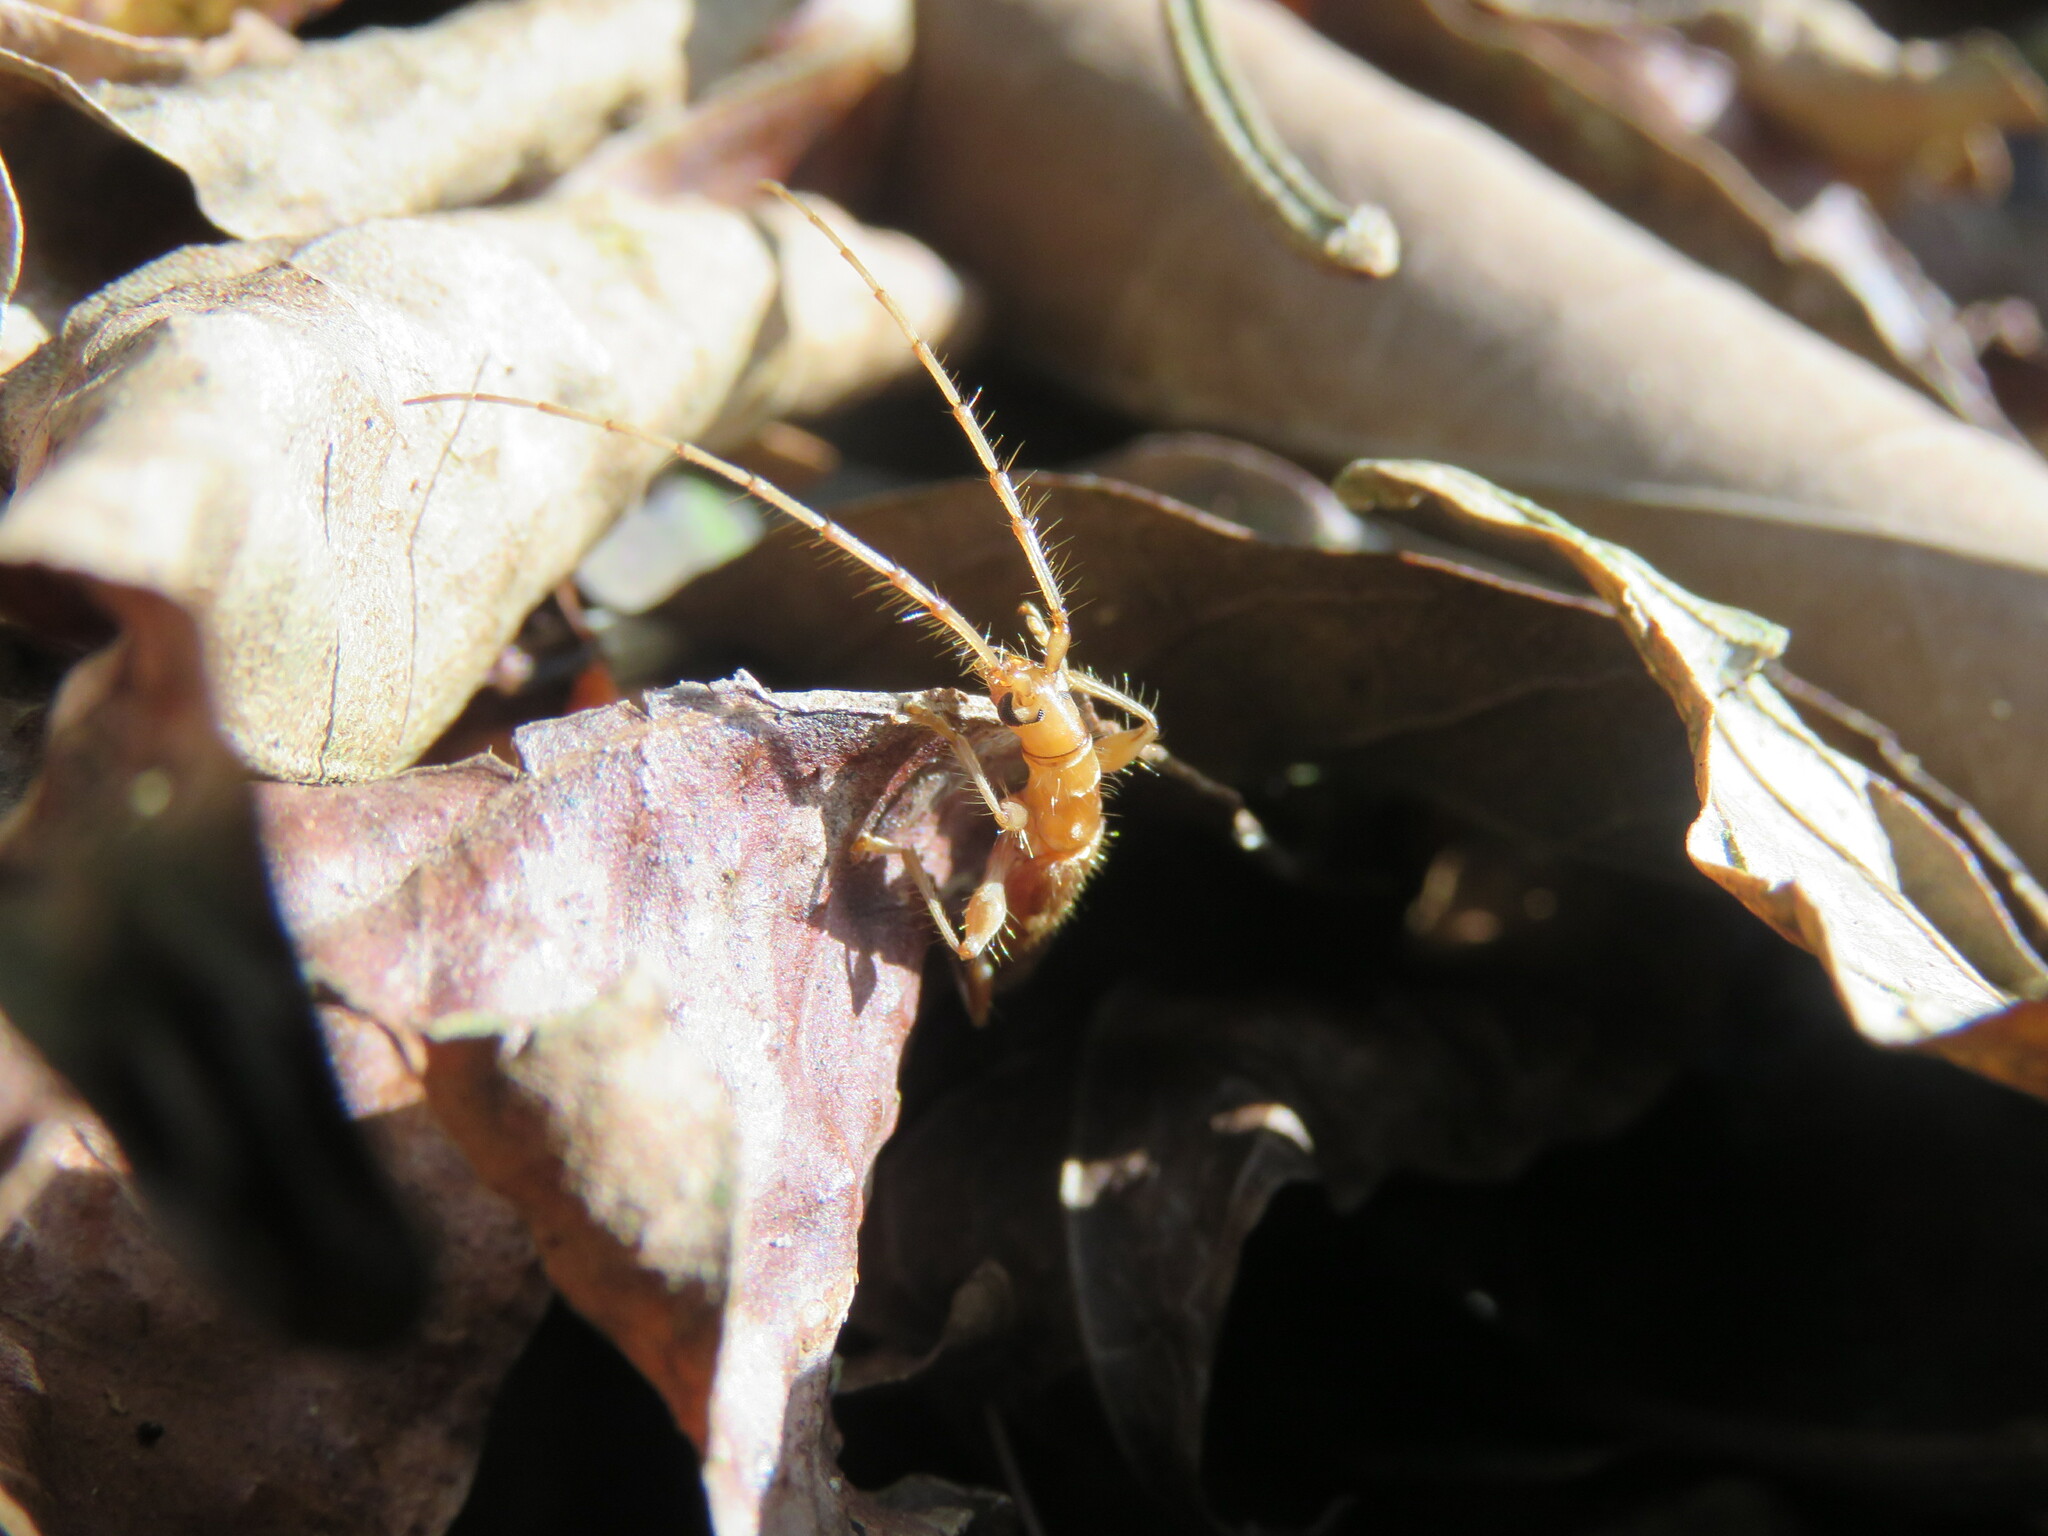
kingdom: Animalia
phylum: Arthropoda
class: Insecta
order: Coleoptera
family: Cerambycidae
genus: Neocompsa
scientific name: Neocompsa spinosa
